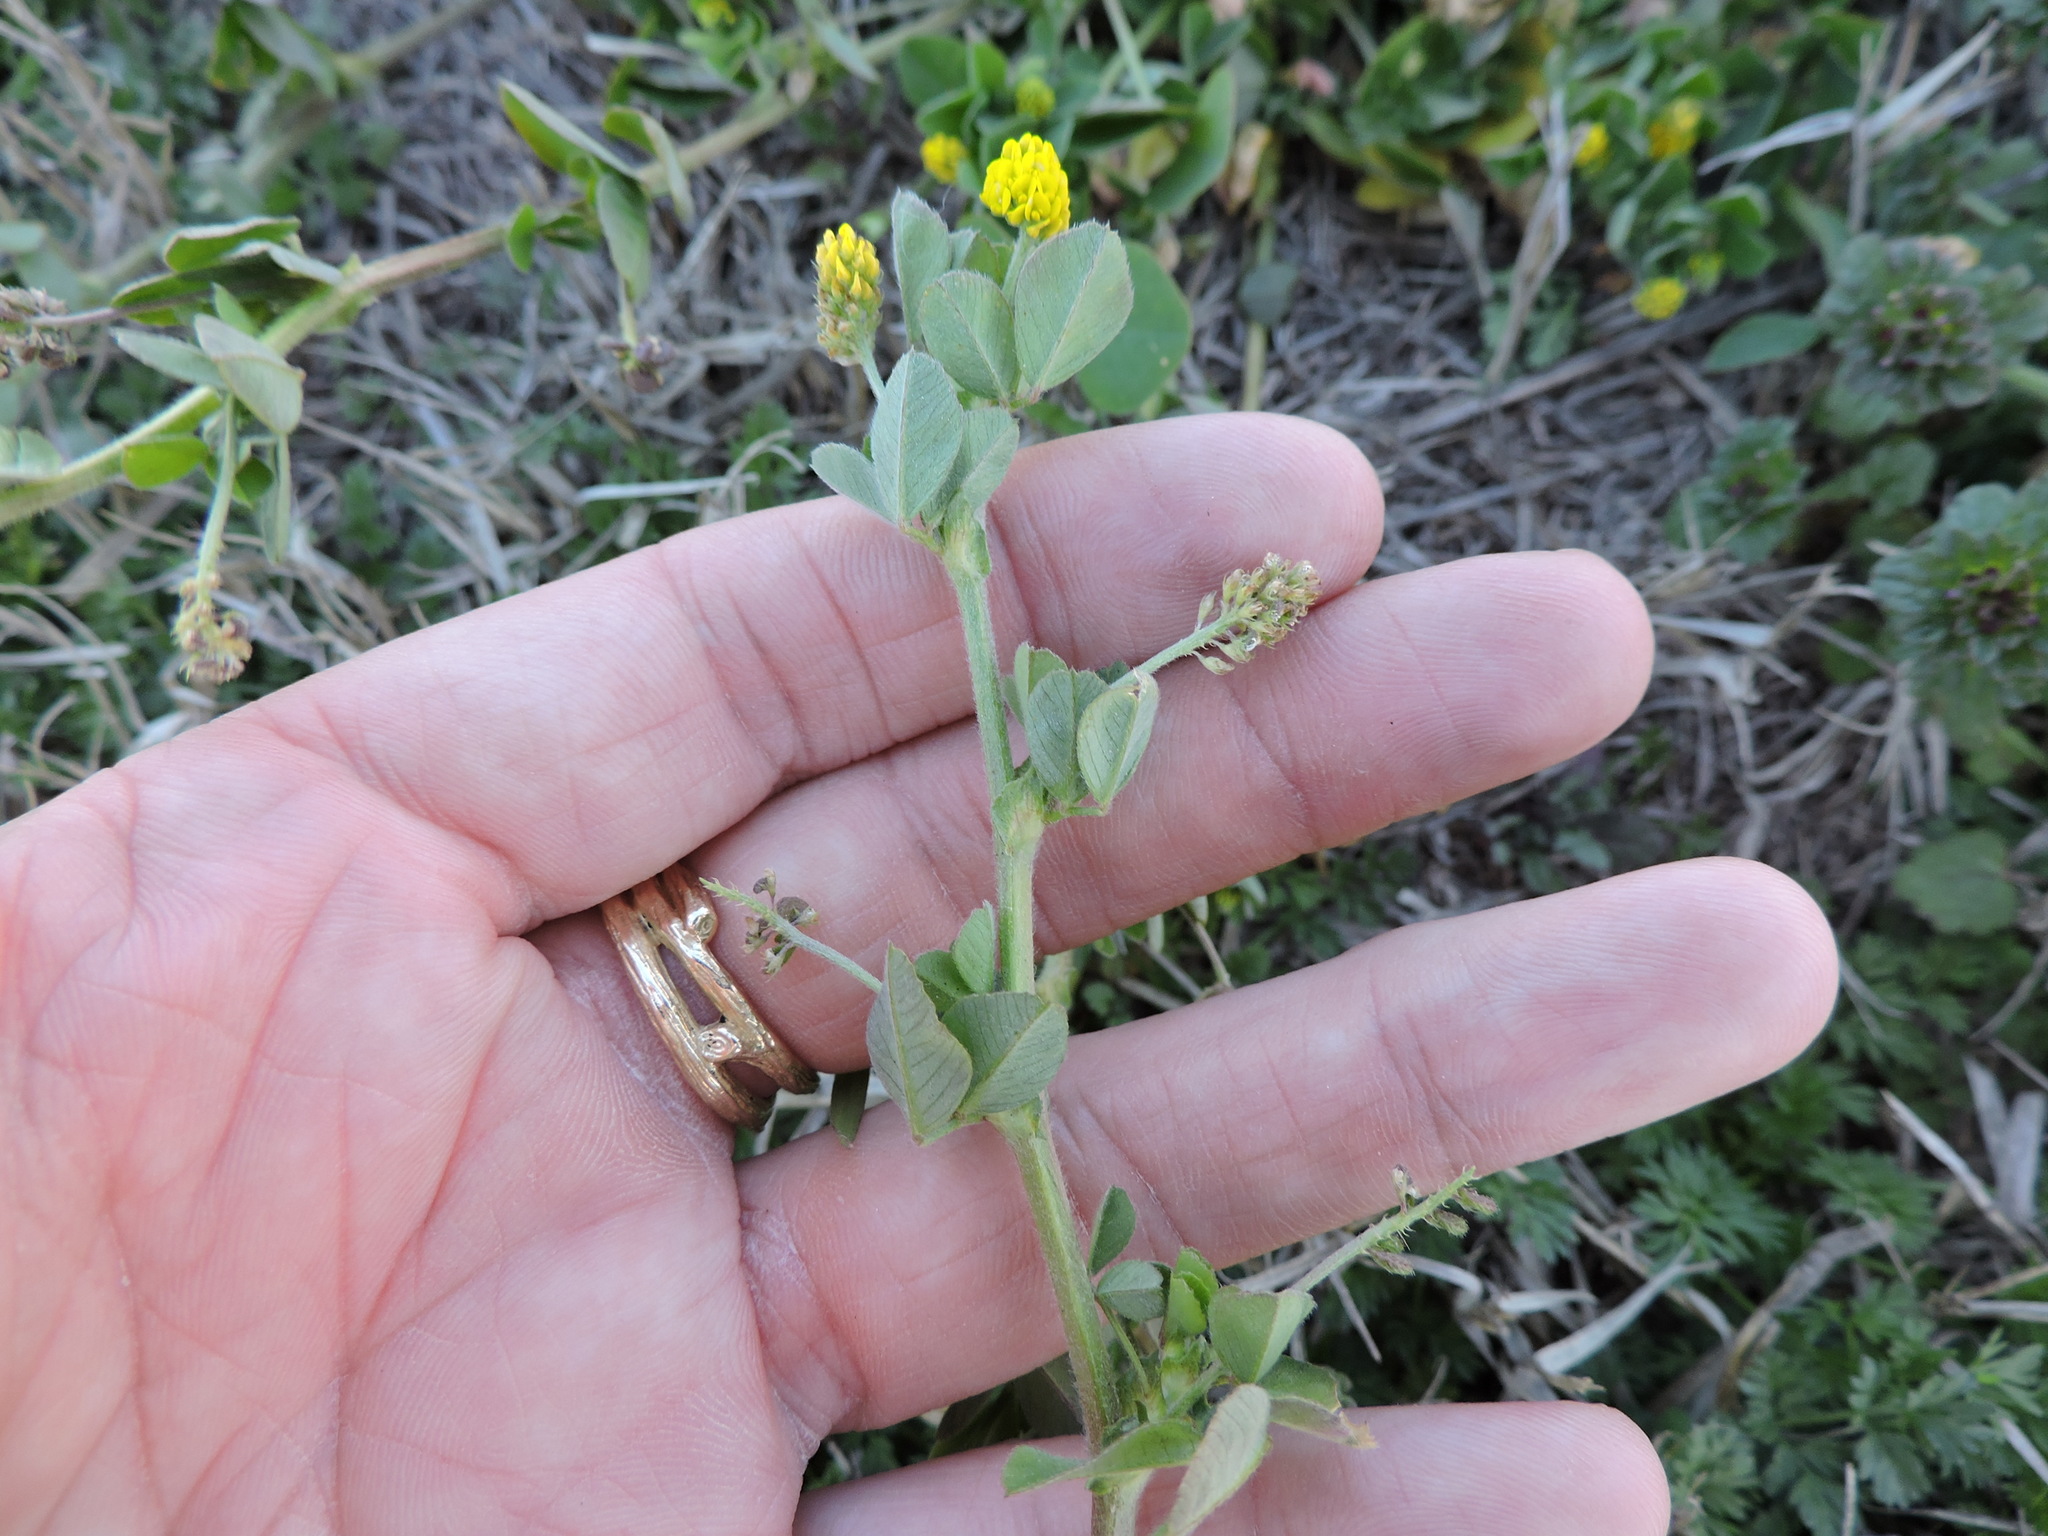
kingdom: Plantae
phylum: Tracheophyta
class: Magnoliopsida
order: Fabales
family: Fabaceae
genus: Medicago
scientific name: Medicago lupulina
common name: Black medick
